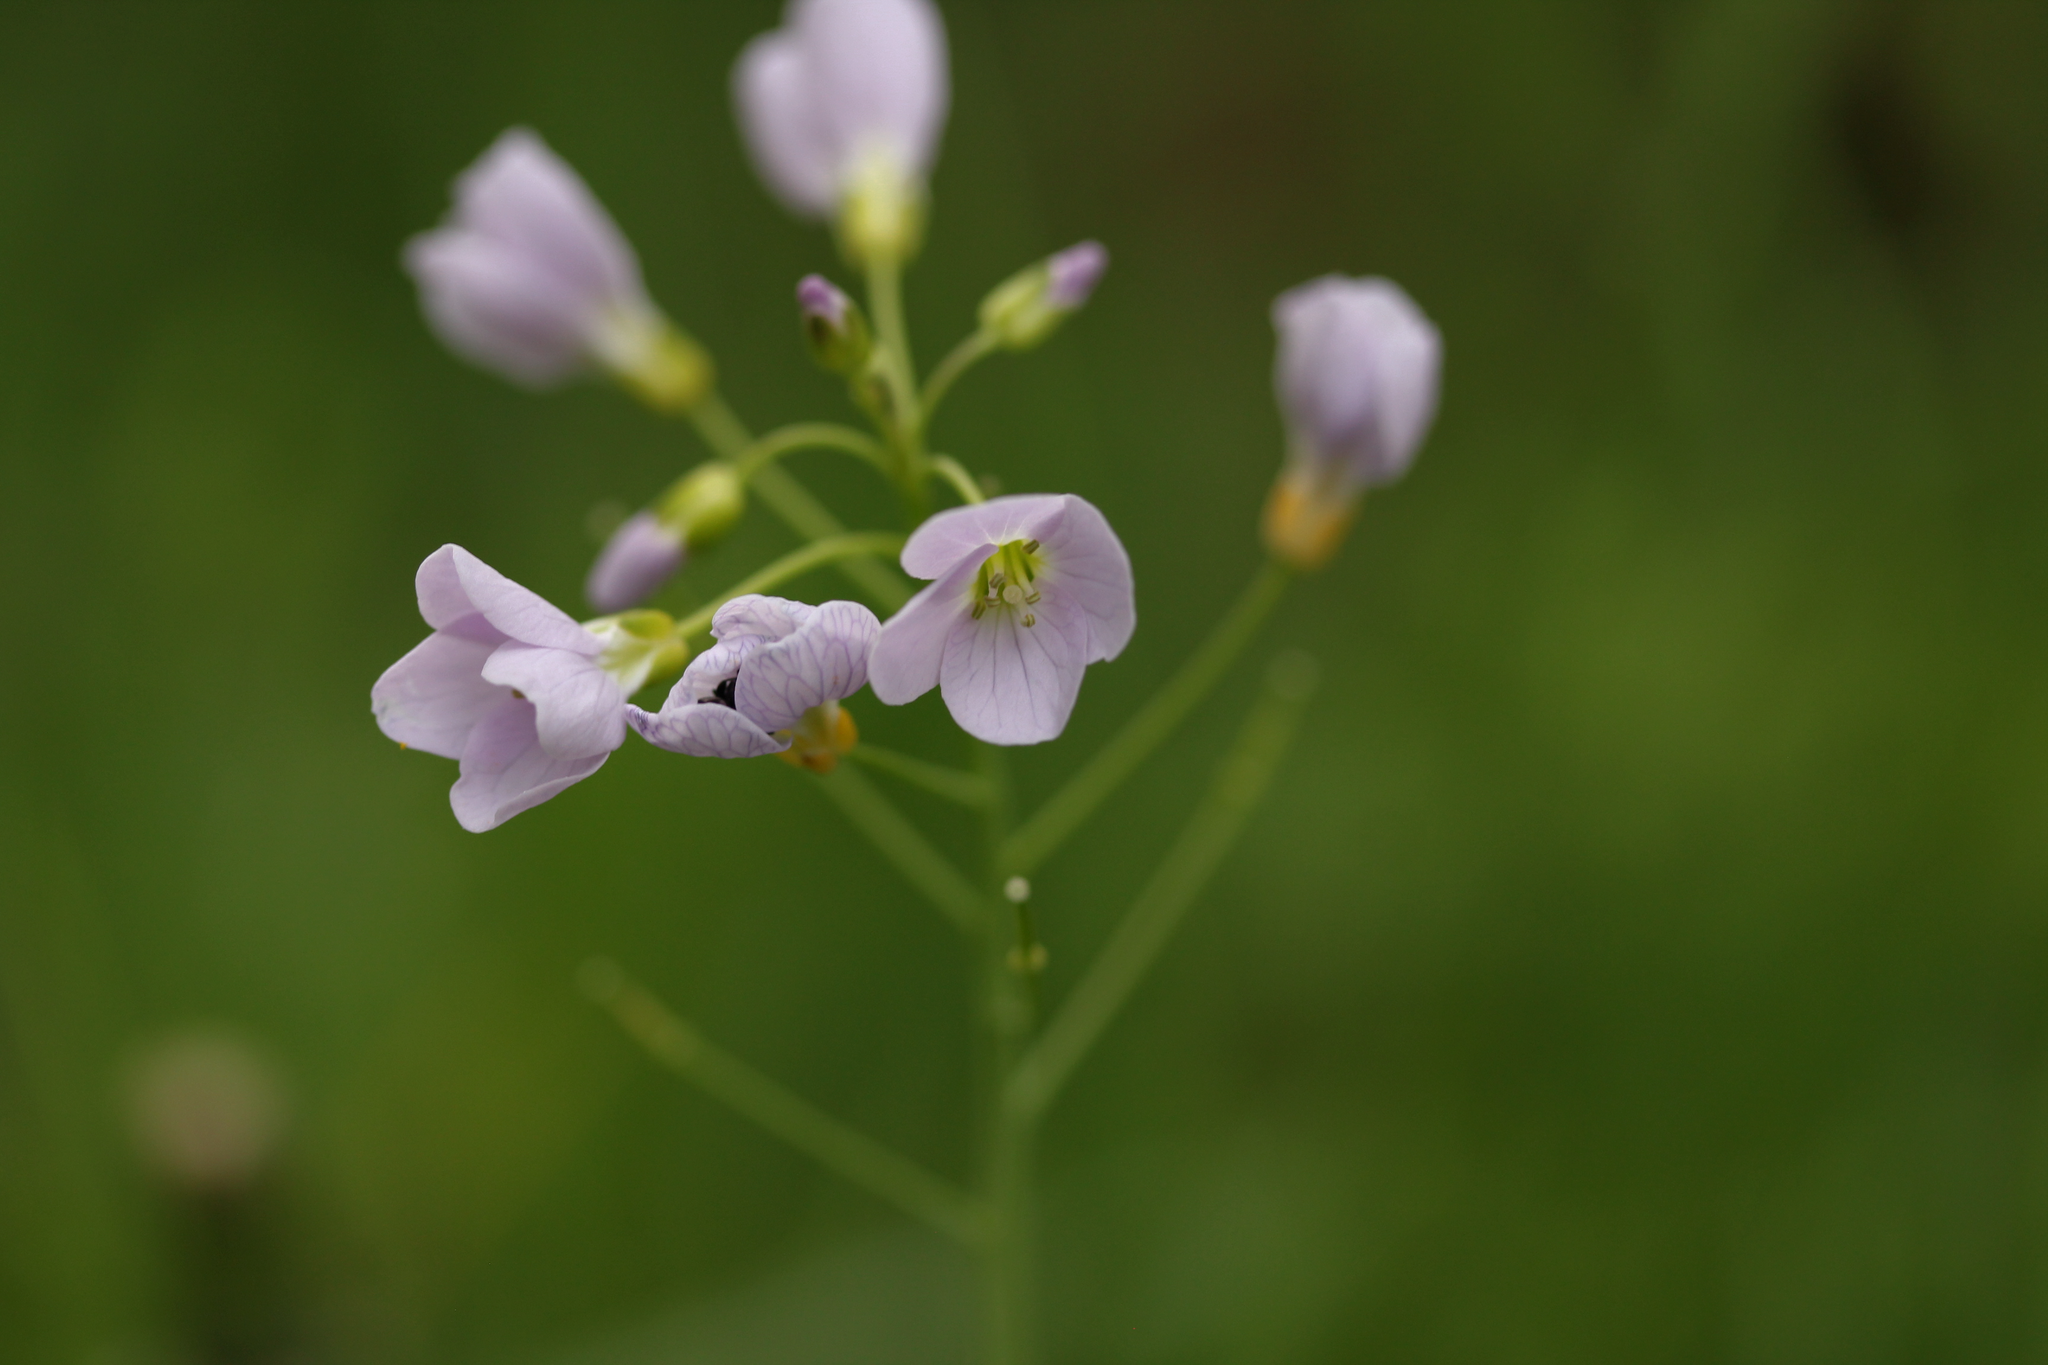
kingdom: Plantae
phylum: Tracheophyta
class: Magnoliopsida
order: Brassicales
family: Brassicaceae
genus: Cardamine
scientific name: Cardamine pratensis
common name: Cuckoo flower
